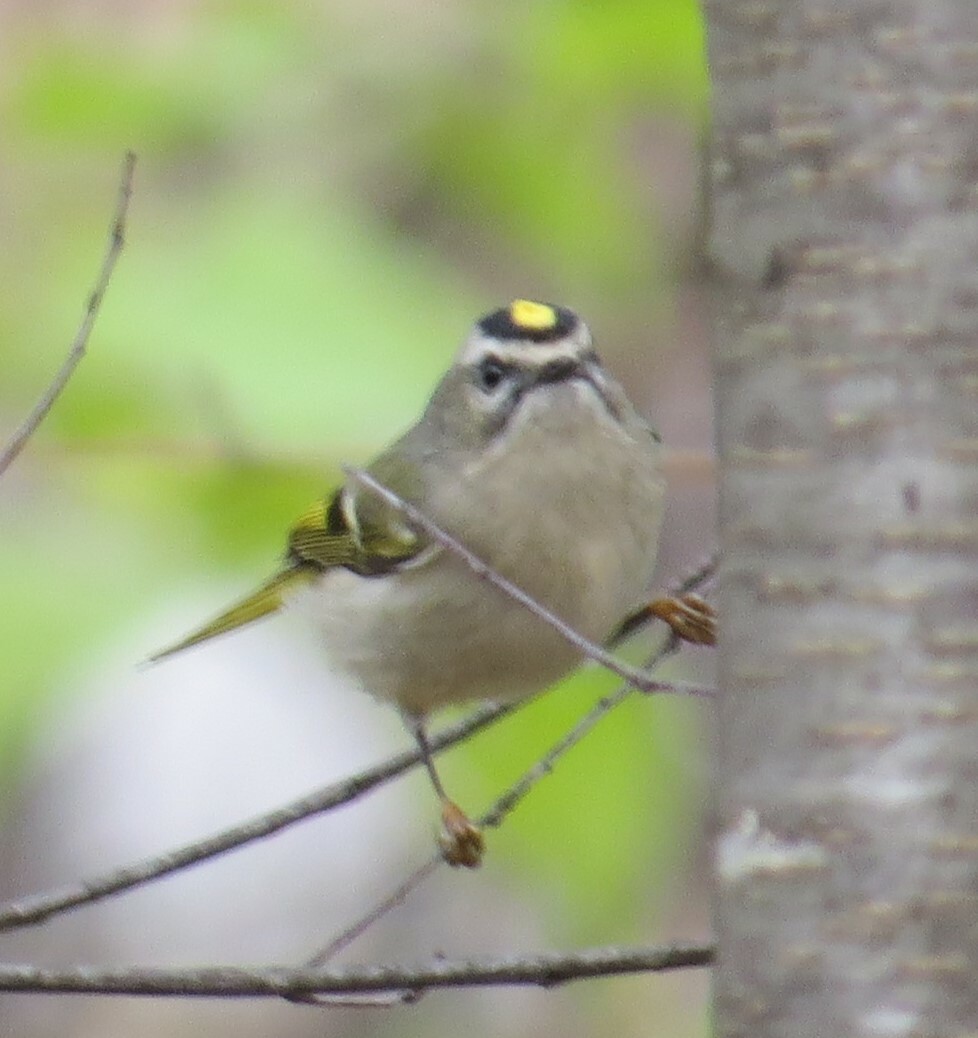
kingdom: Animalia
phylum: Chordata
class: Aves
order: Passeriformes
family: Regulidae
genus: Regulus
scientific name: Regulus satrapa
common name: Golden-crowned kinglet
